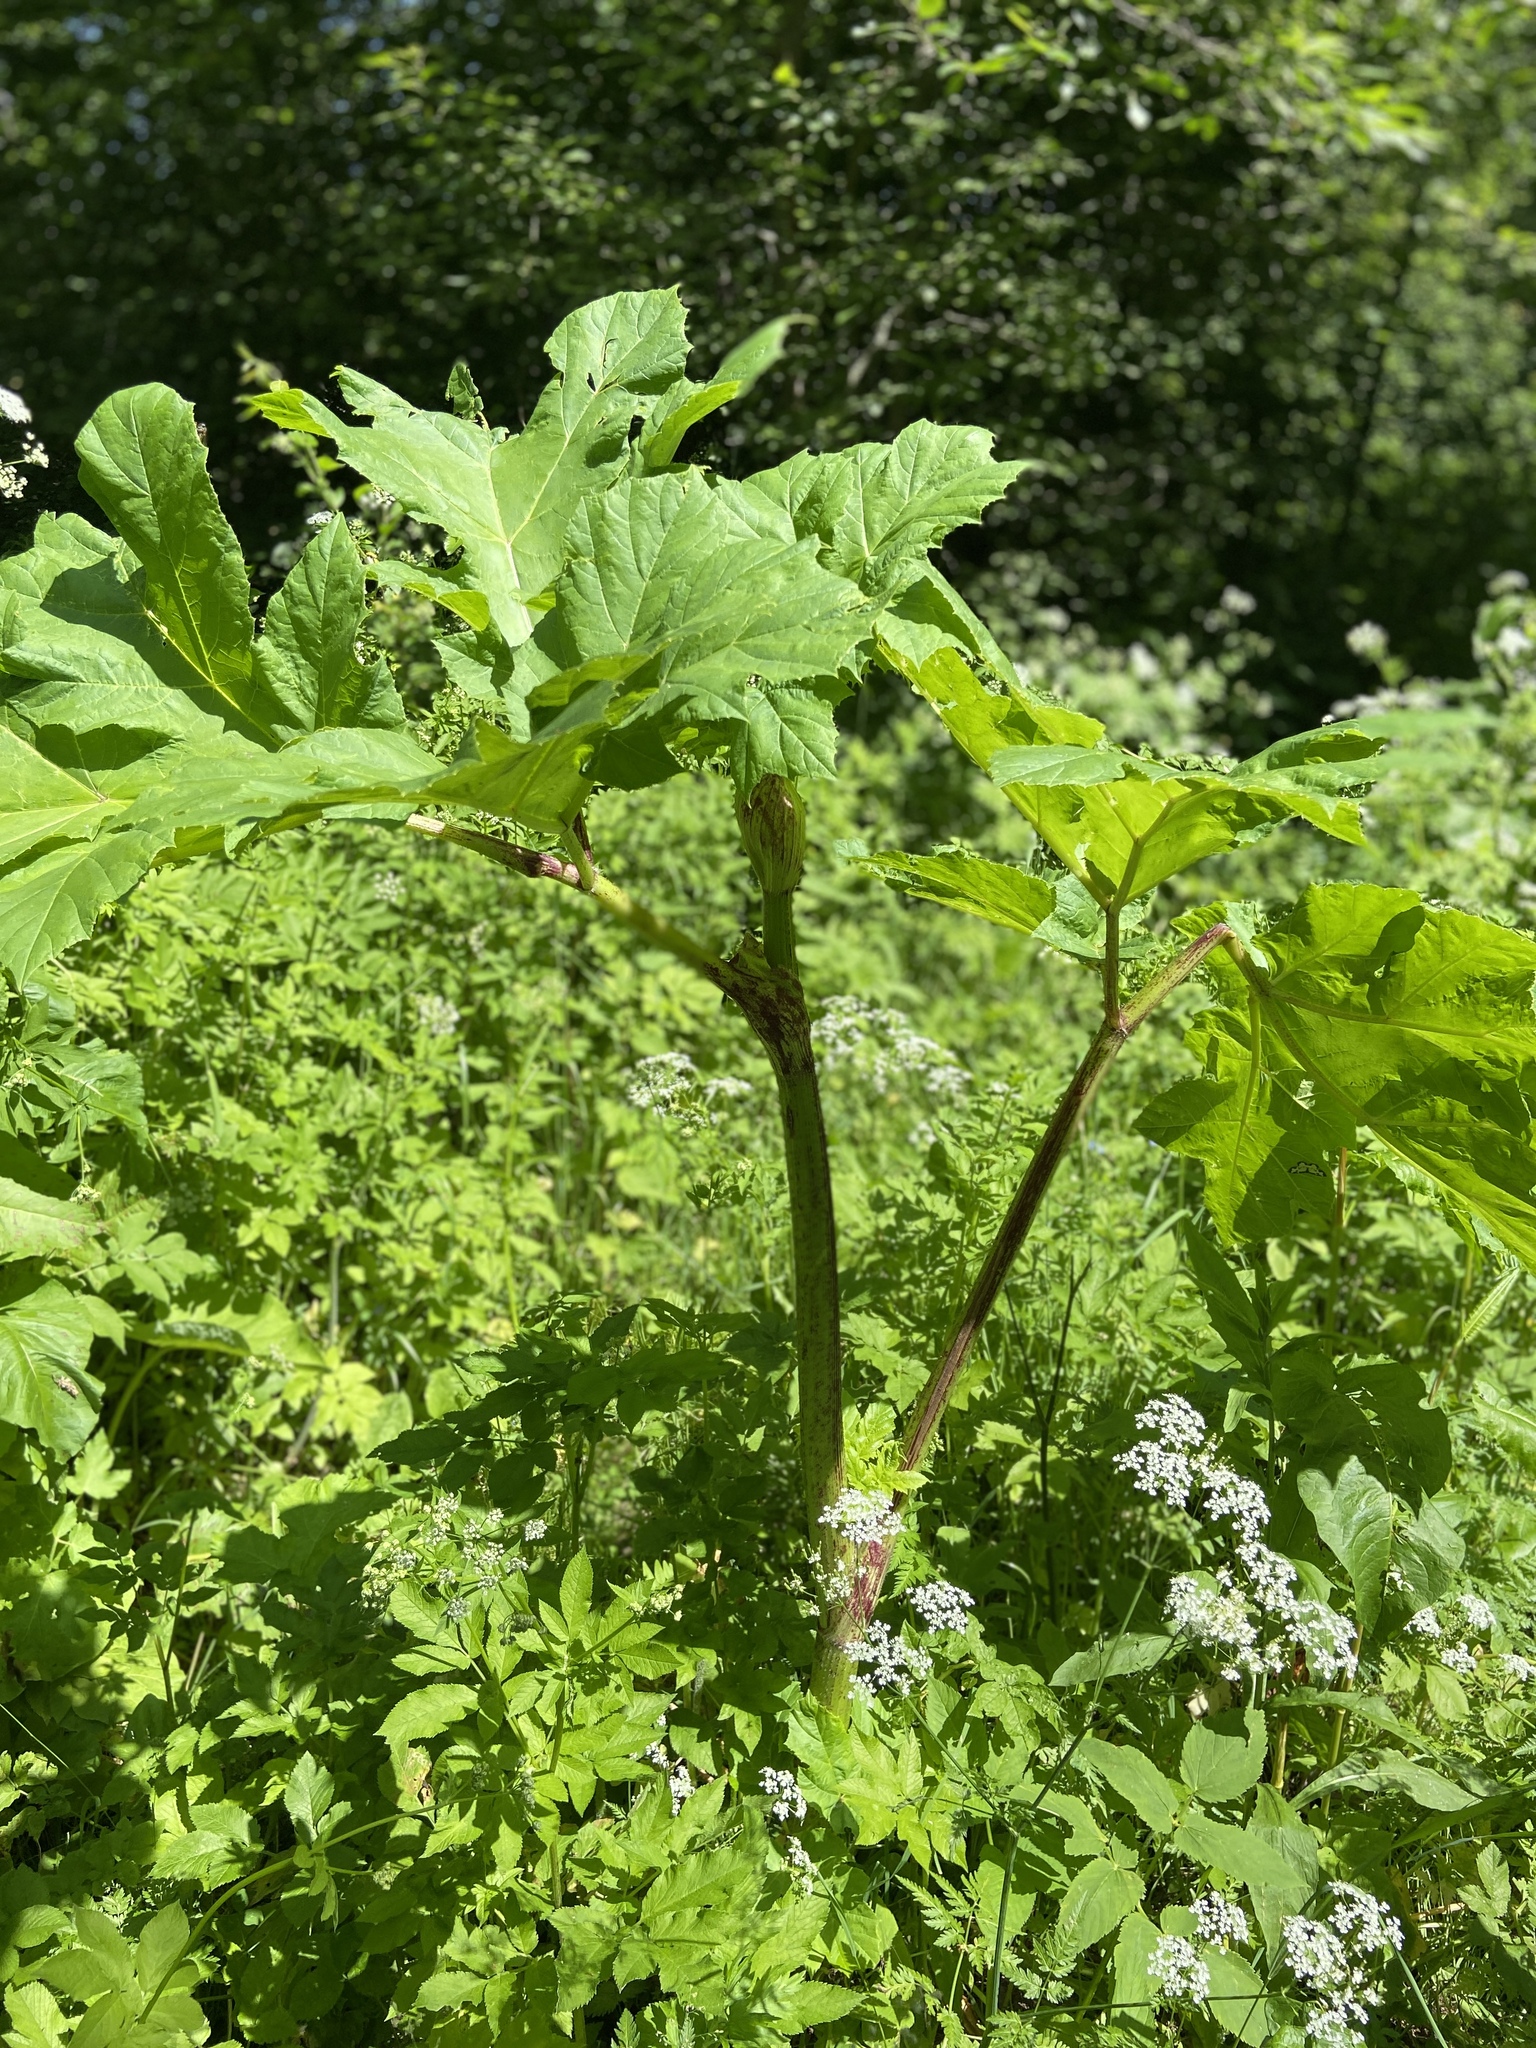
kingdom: Plantae
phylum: Tracheophyta
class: Magnoliopsida
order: Apiales
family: Apiaceae
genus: Heracleum
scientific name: Heracleum sosnowskyi
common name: Sosnowsky's hogweed
